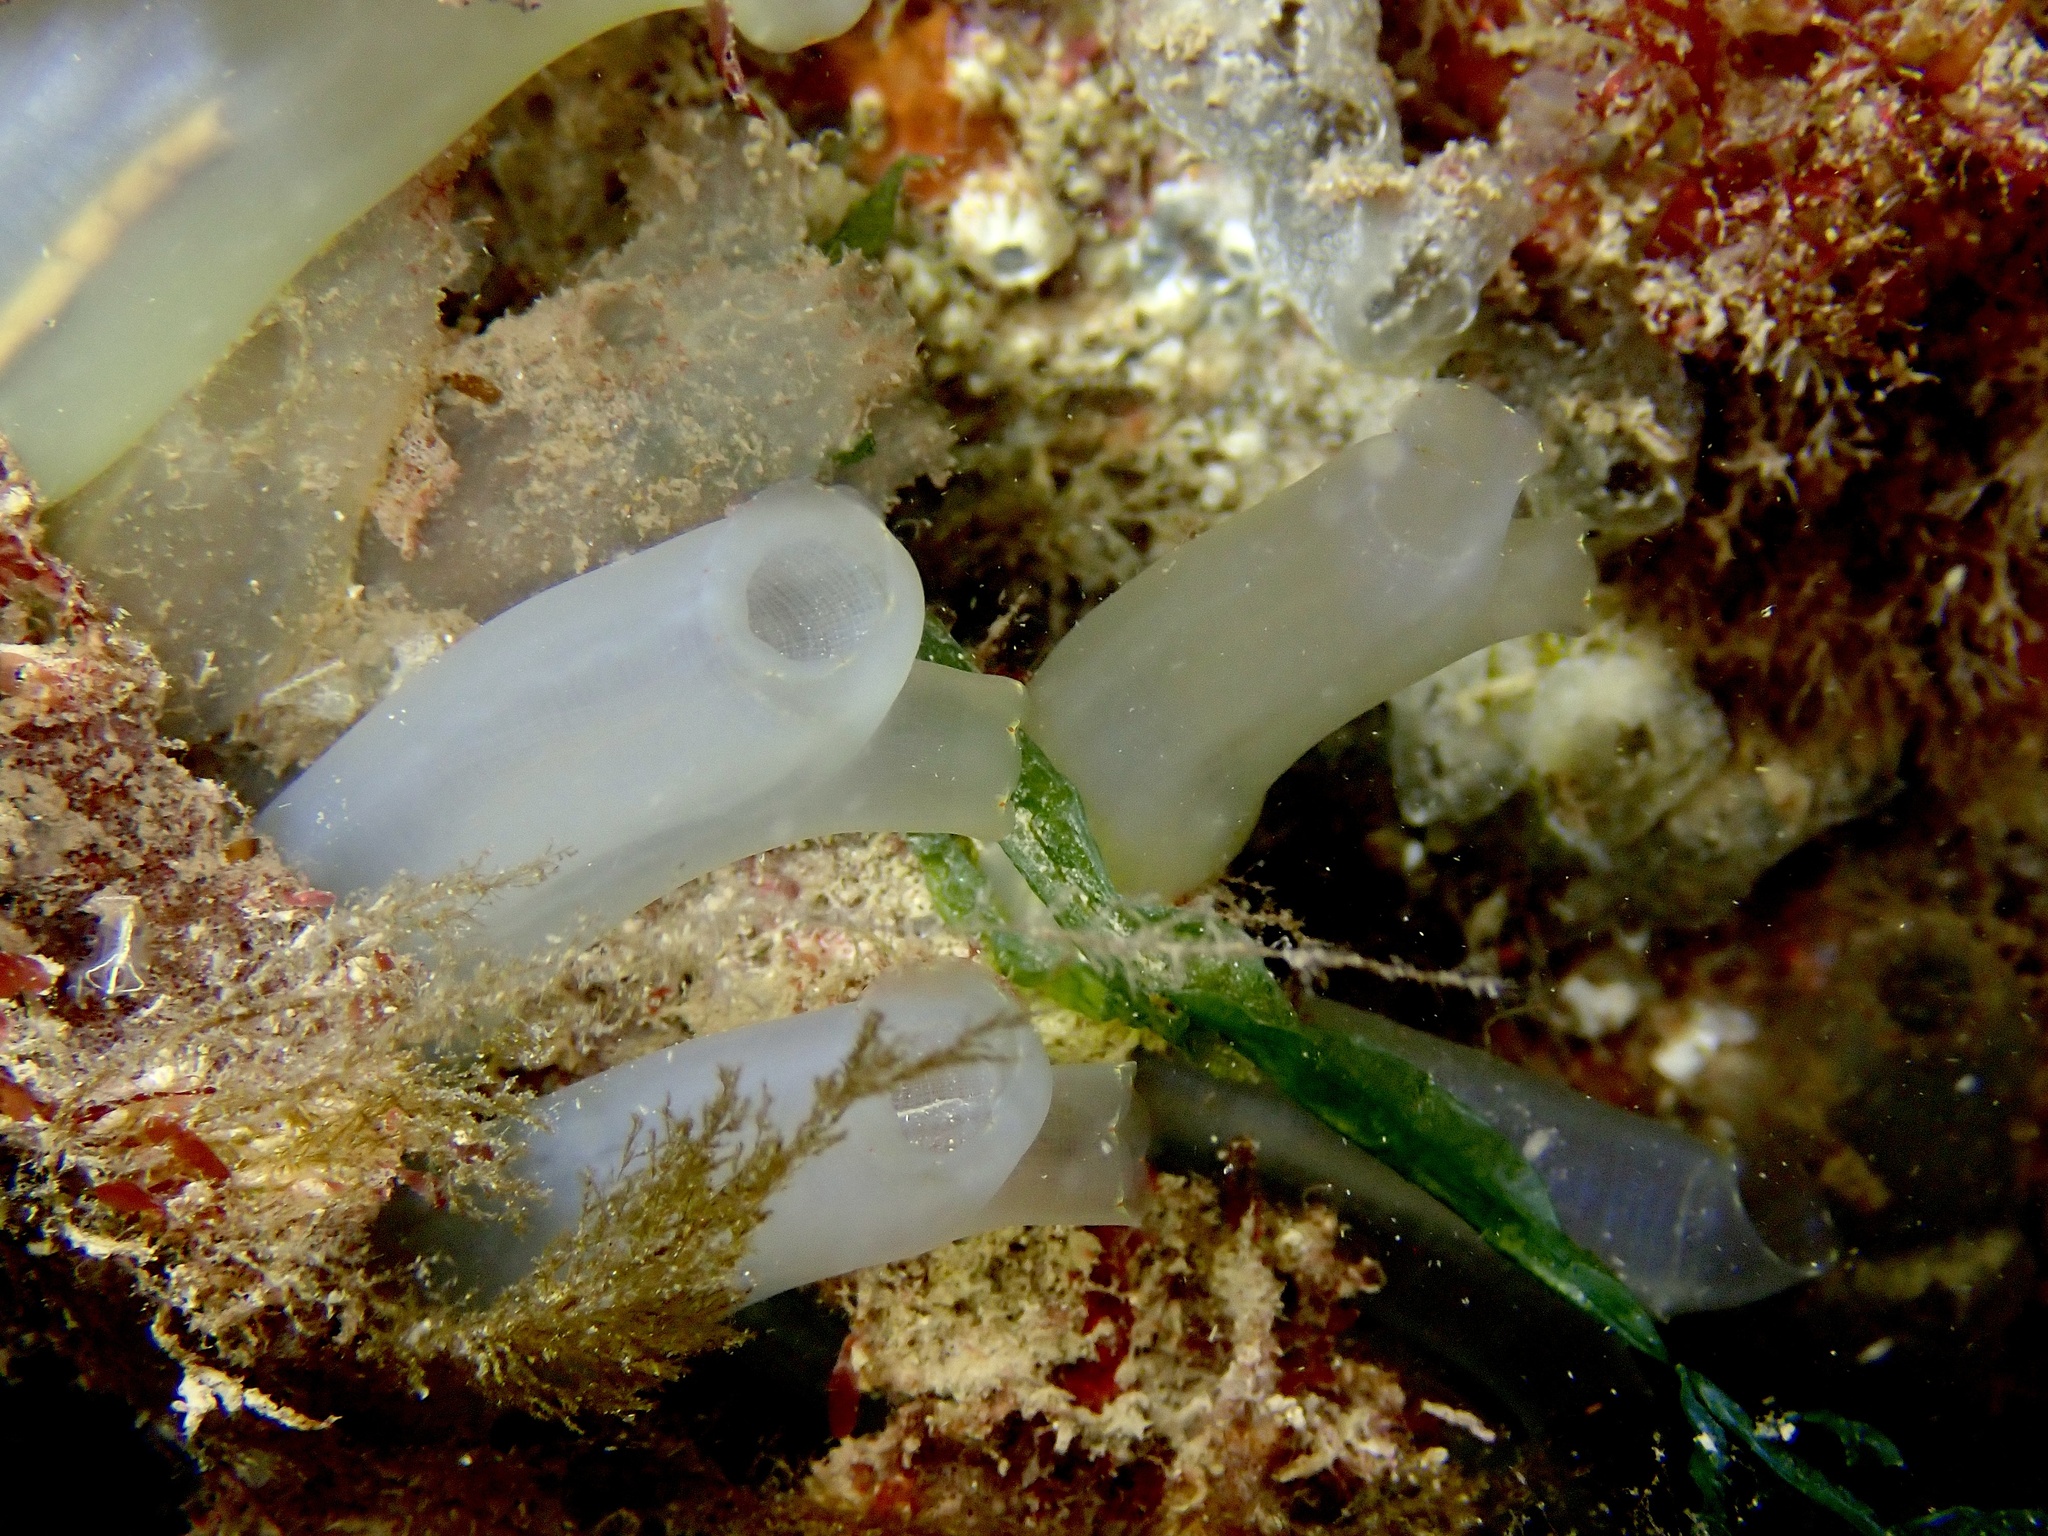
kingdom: Animalia
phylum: Chordata
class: Ascidiacea
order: Phlebobranchia
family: Cionidae
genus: Ciona
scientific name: Ciona intestinalis
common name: Vase tunicate
